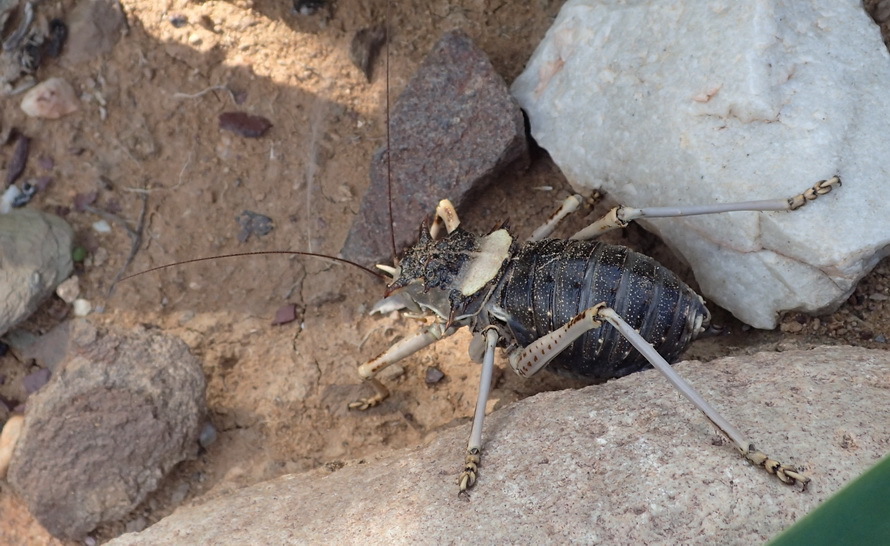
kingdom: Animalia
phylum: Arthropoda
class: Insecta
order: Orthoptera
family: Tettigoniidae
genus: Acanthoproctus
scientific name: Acanthoproctus cervinus
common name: Antlered thorny katydid
